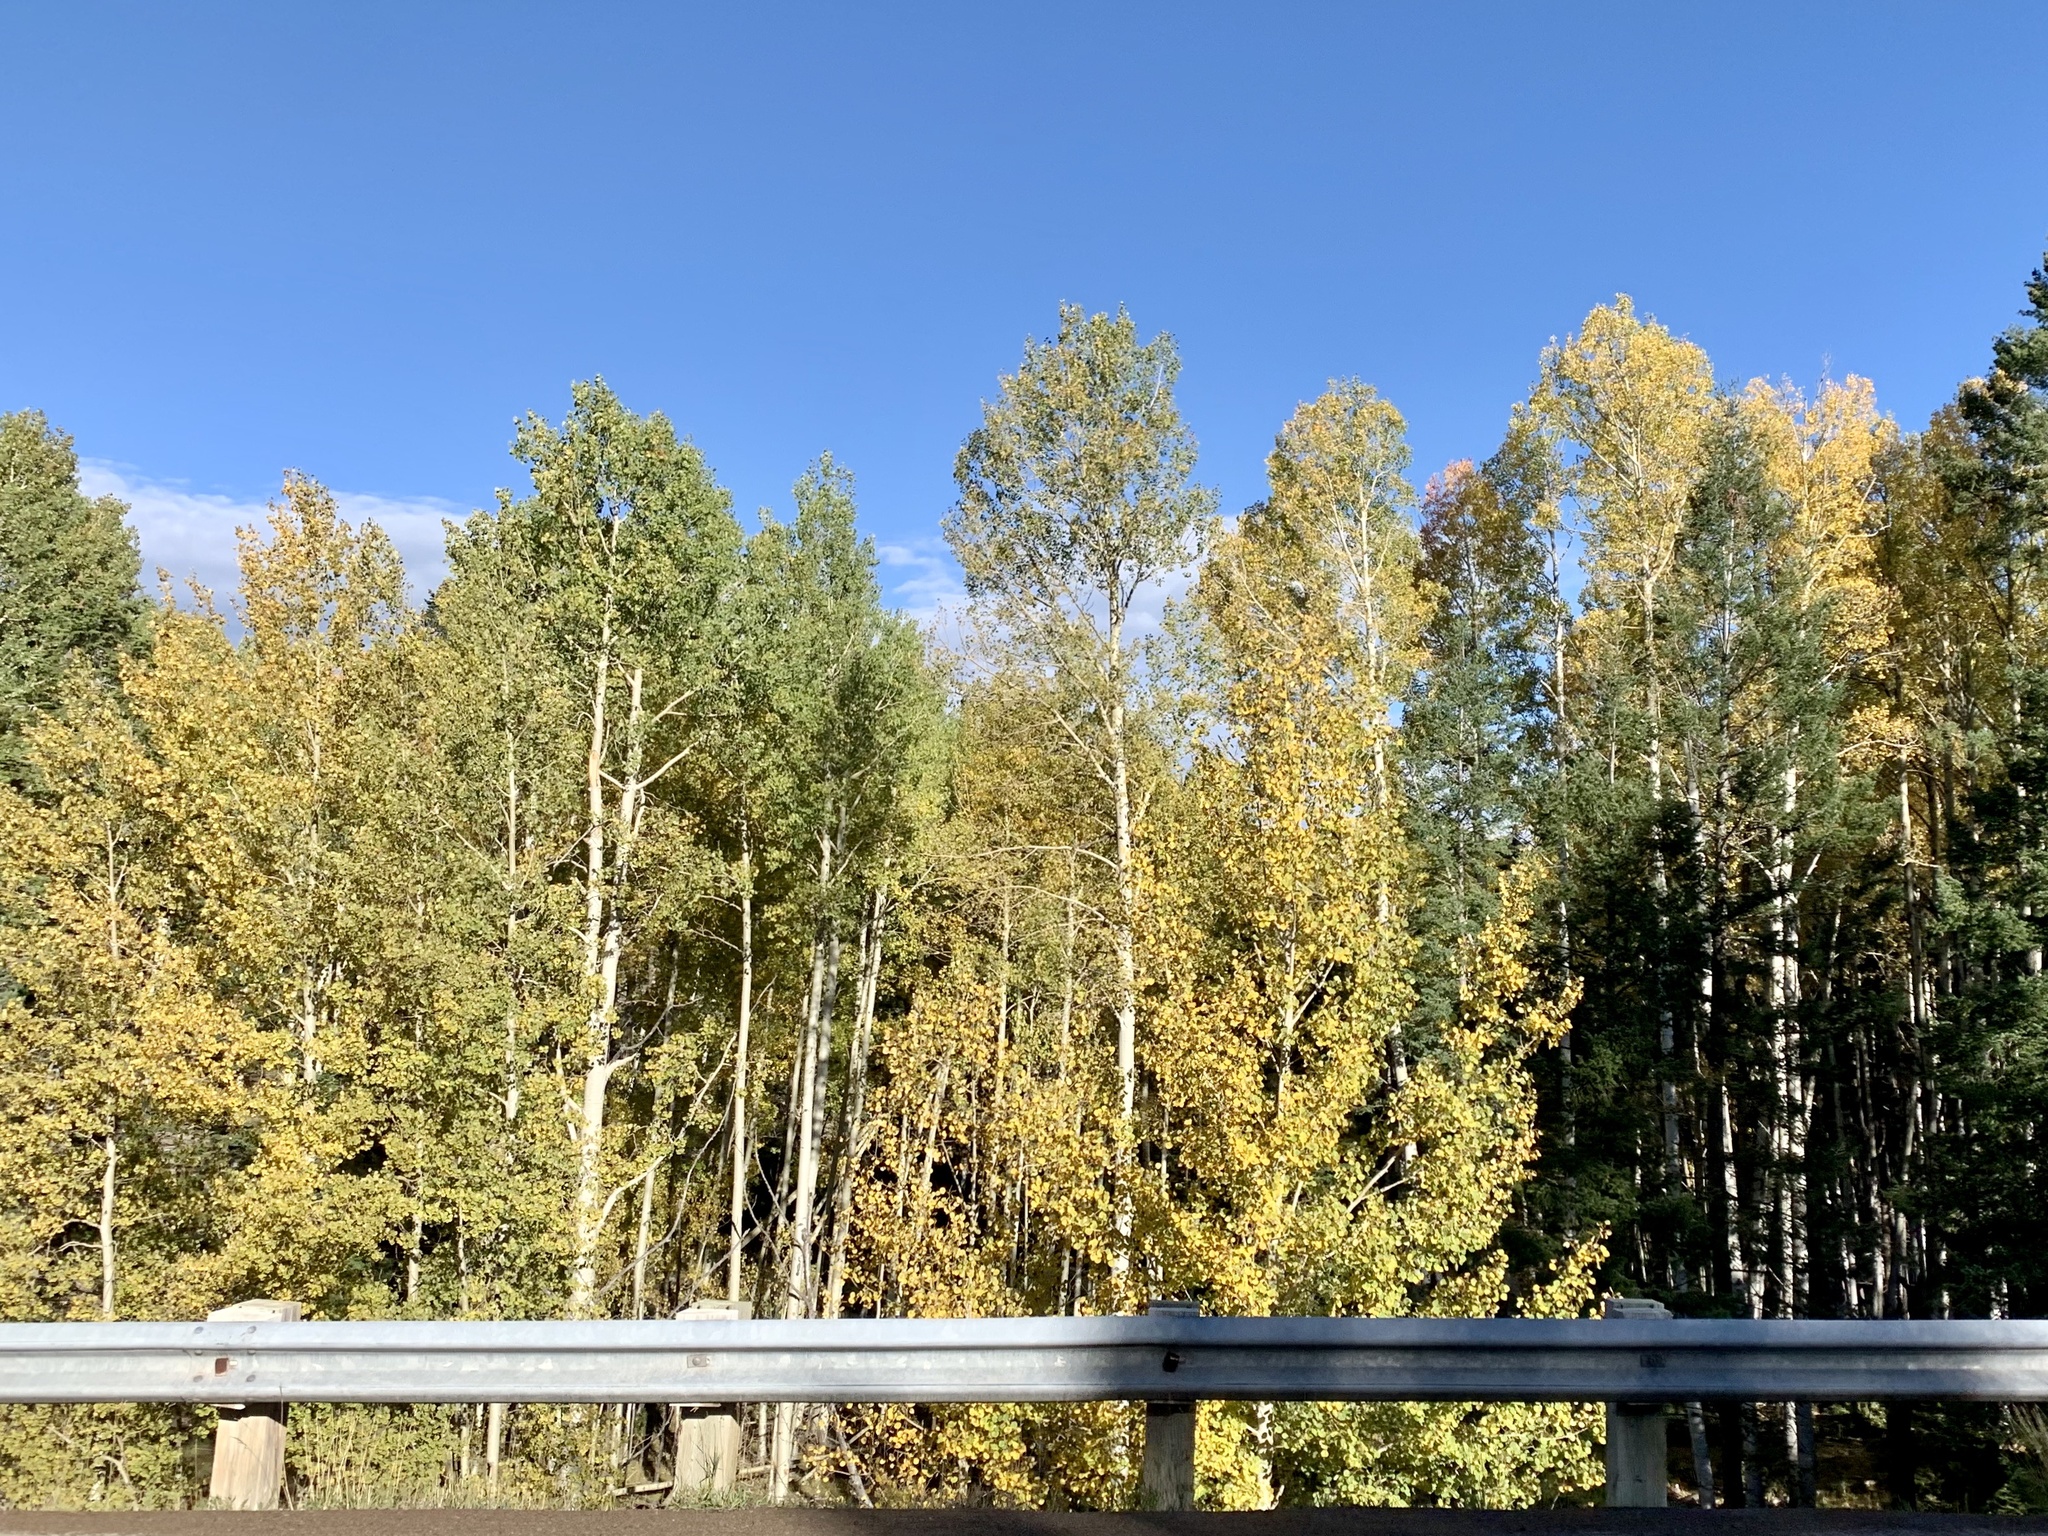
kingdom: Plantae
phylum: Tracheophyta
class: Magnoliopsida
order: Malpighiales
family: Salicaceae
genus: Populus
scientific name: Populus tremuloides
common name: Quaking aspen
